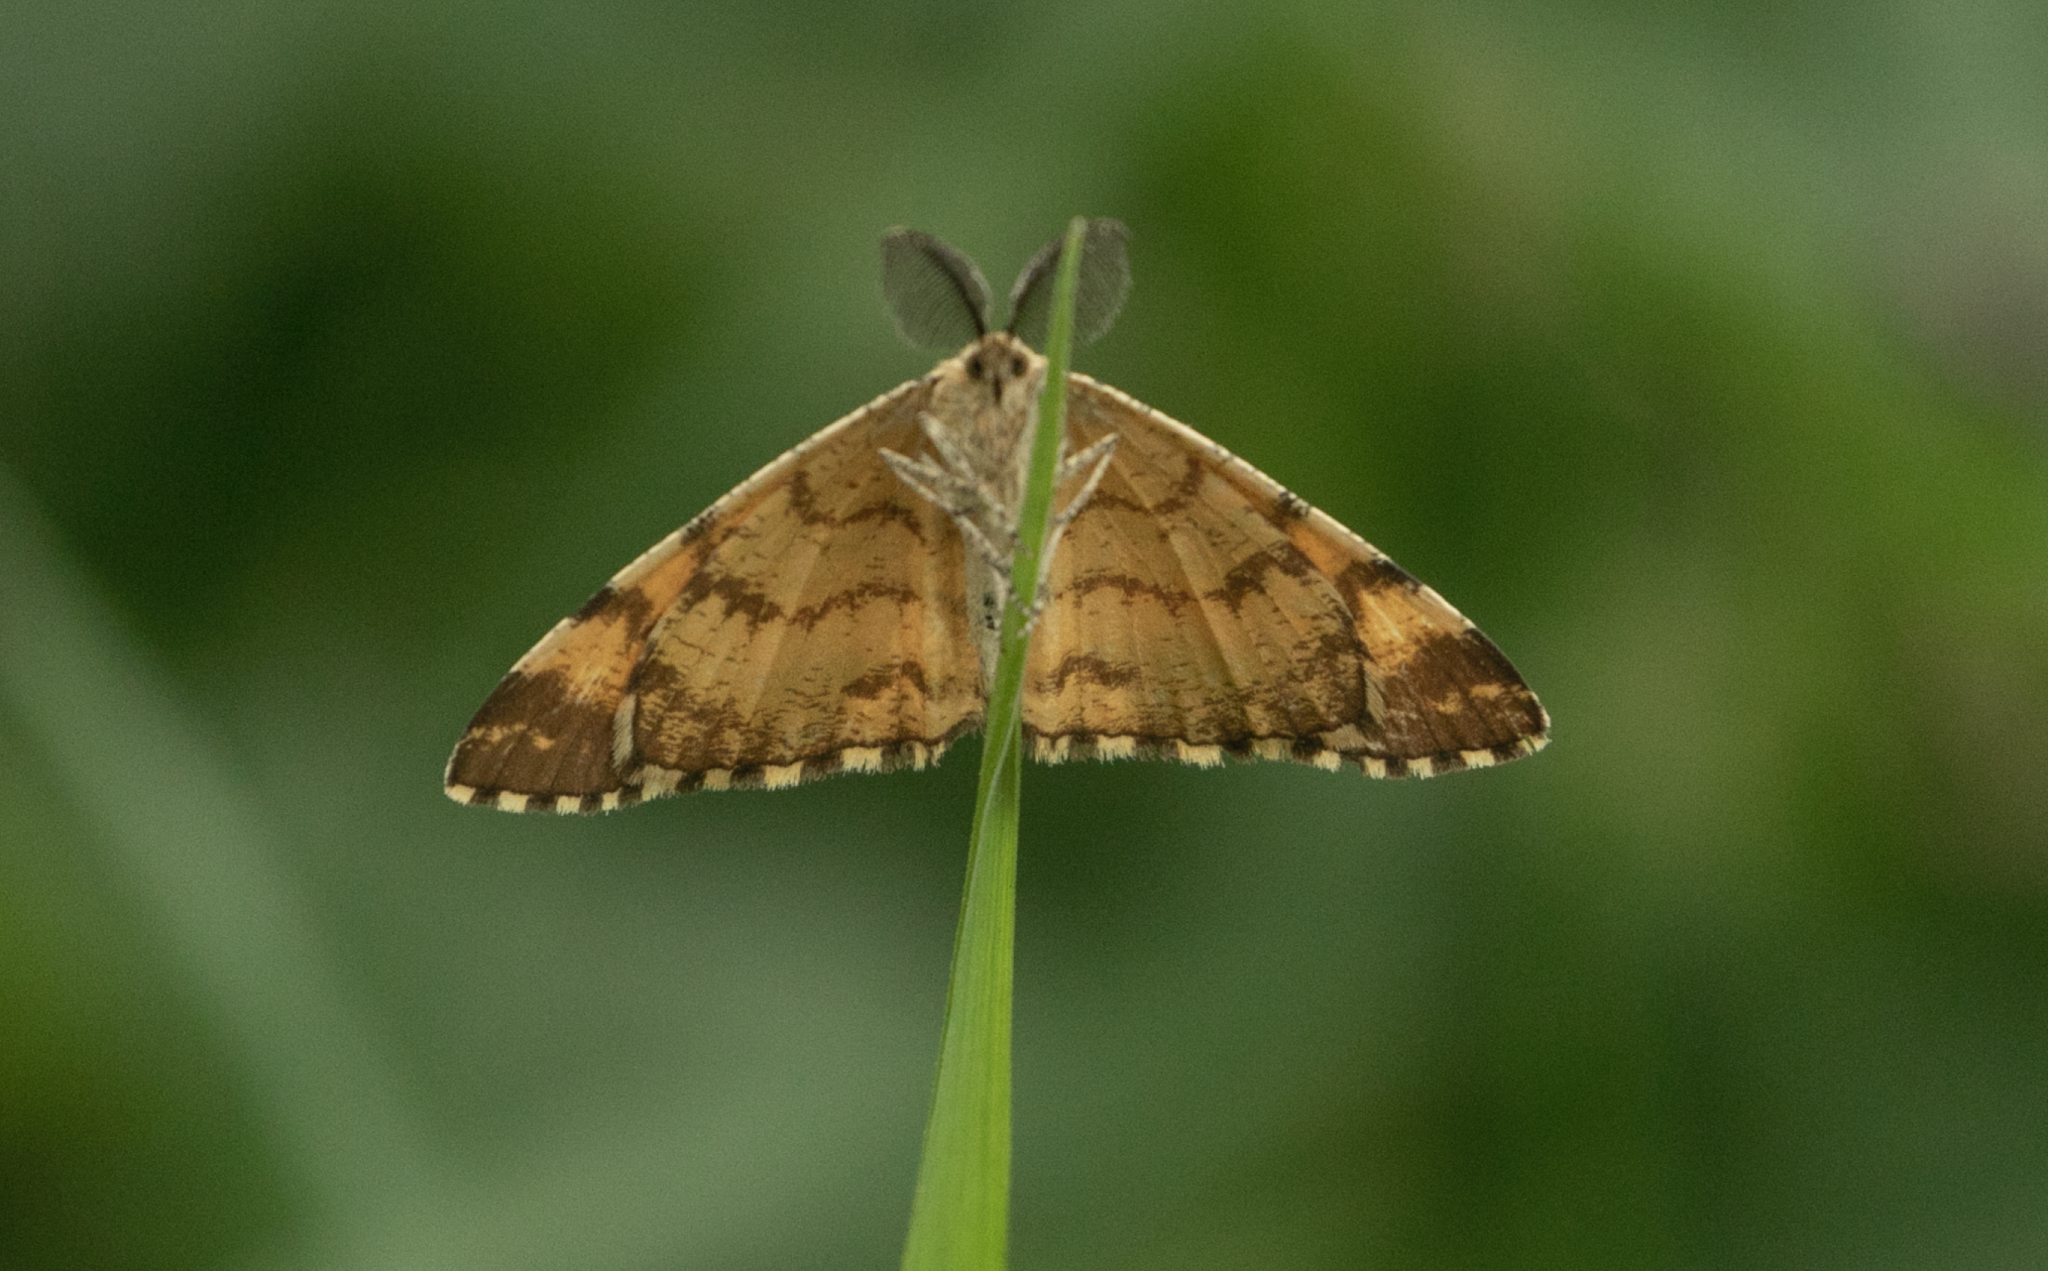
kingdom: Animalia
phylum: Arthropoda
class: Insecta
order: Lepidoptera
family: Geometridae
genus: Ematurga
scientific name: Ematurga atomaria
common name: Common heath
